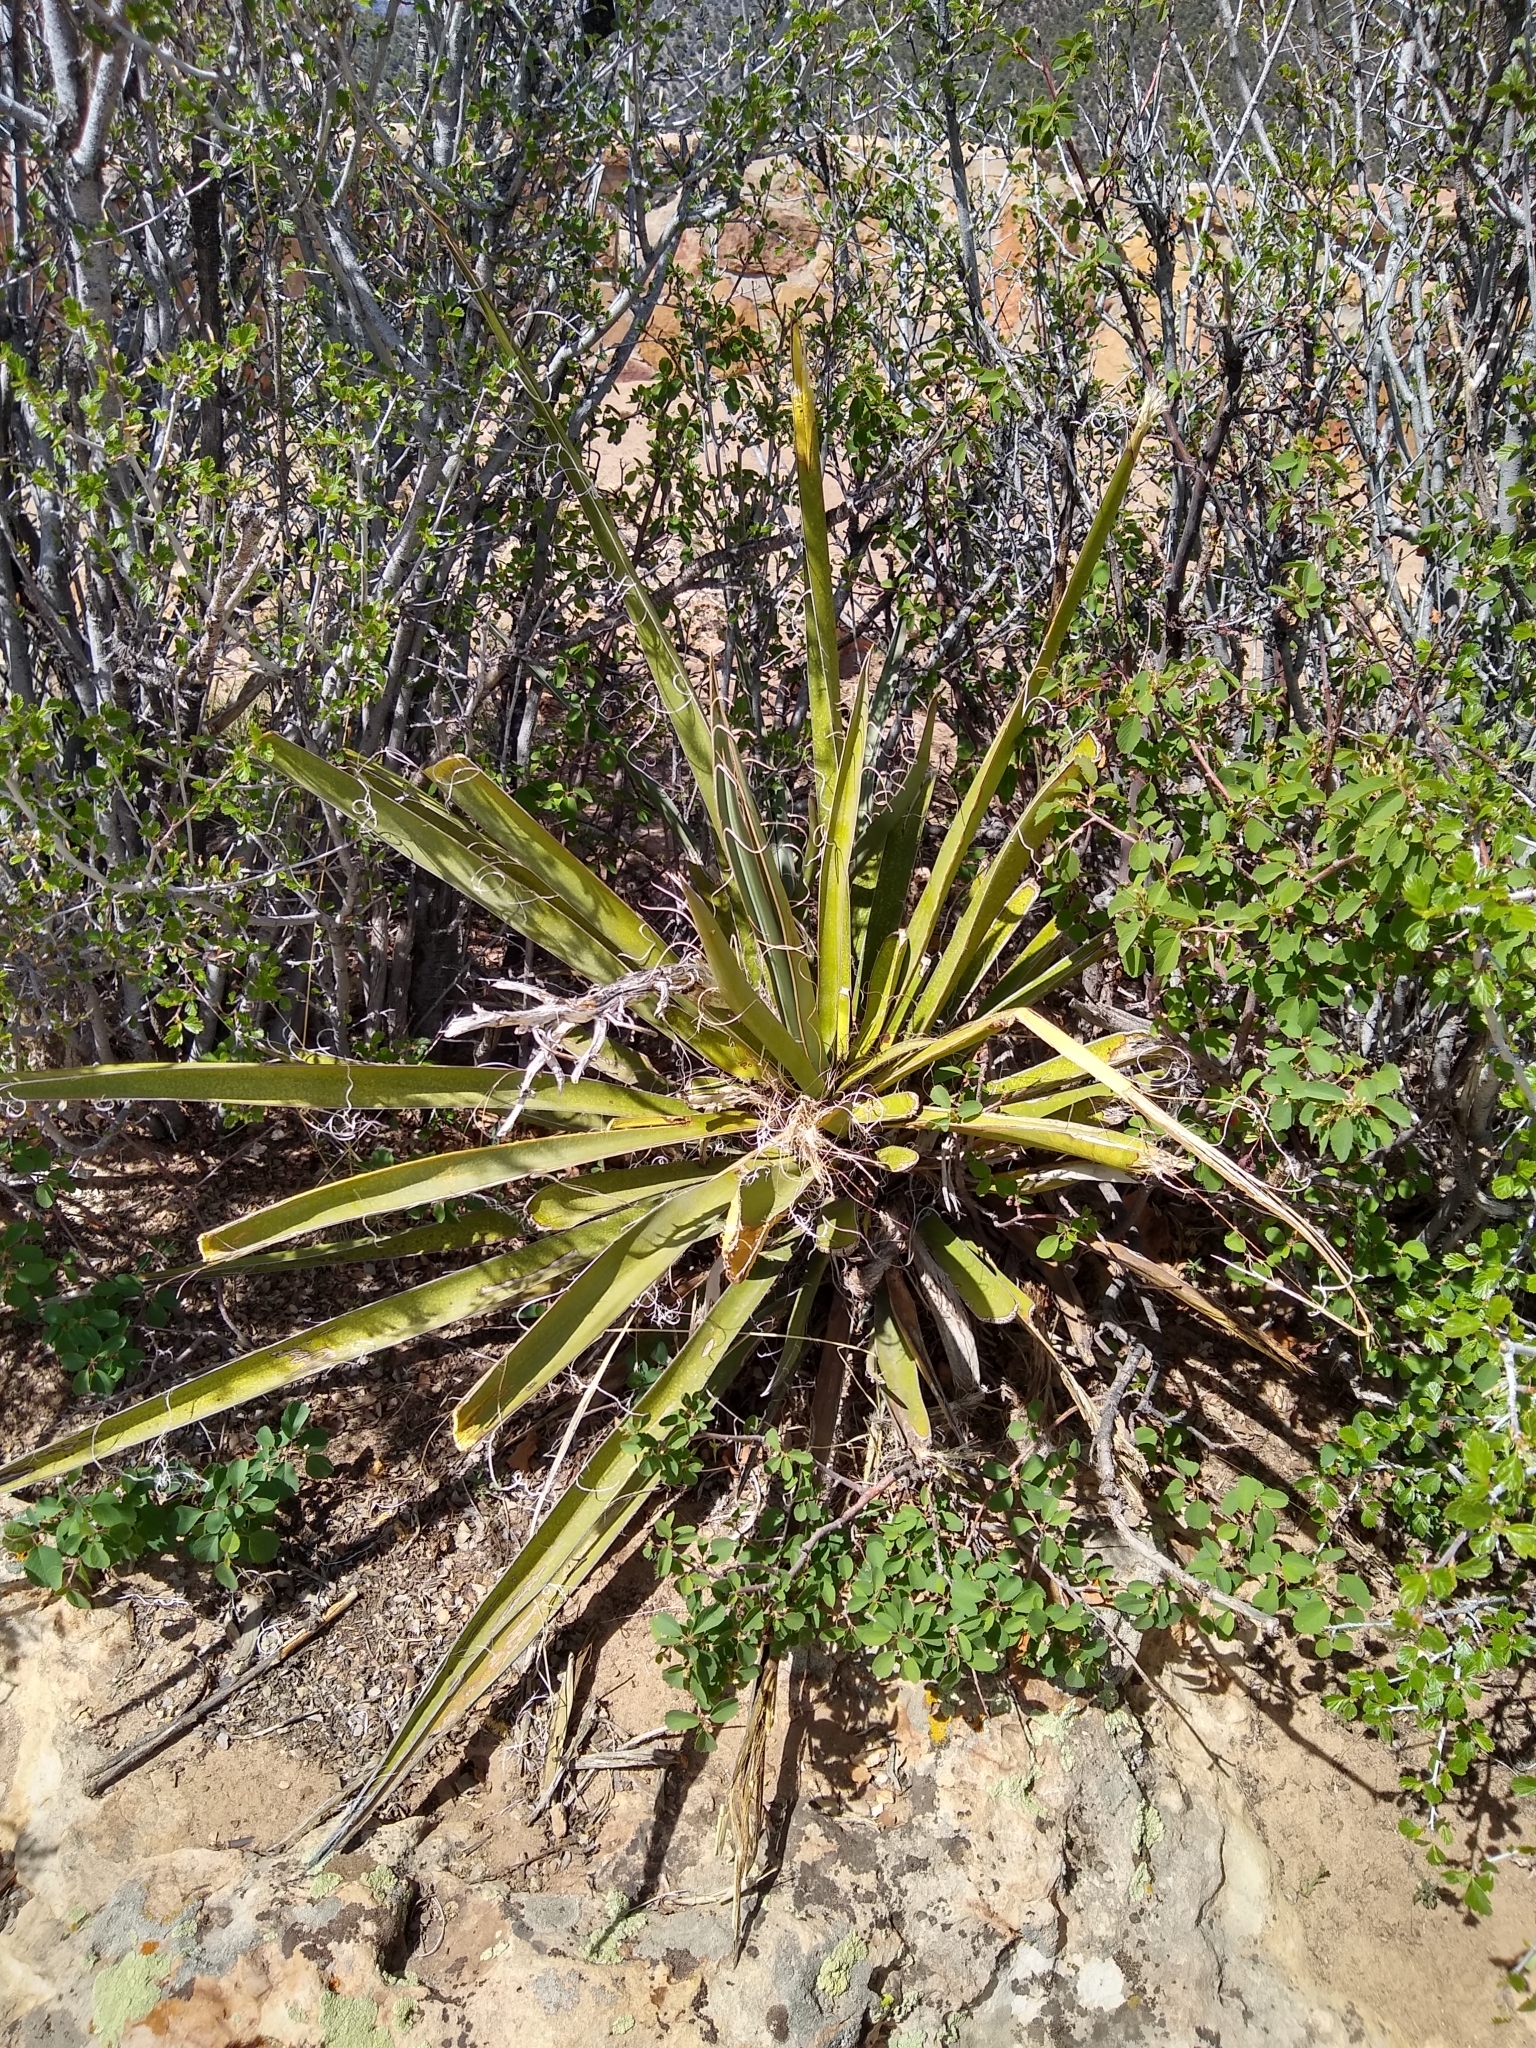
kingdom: Plantae
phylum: Tracheophyta
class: Liliopsida
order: Asparagales
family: Asparagaceae
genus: Yucca
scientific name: Yucca baccata
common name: Banana yucca
